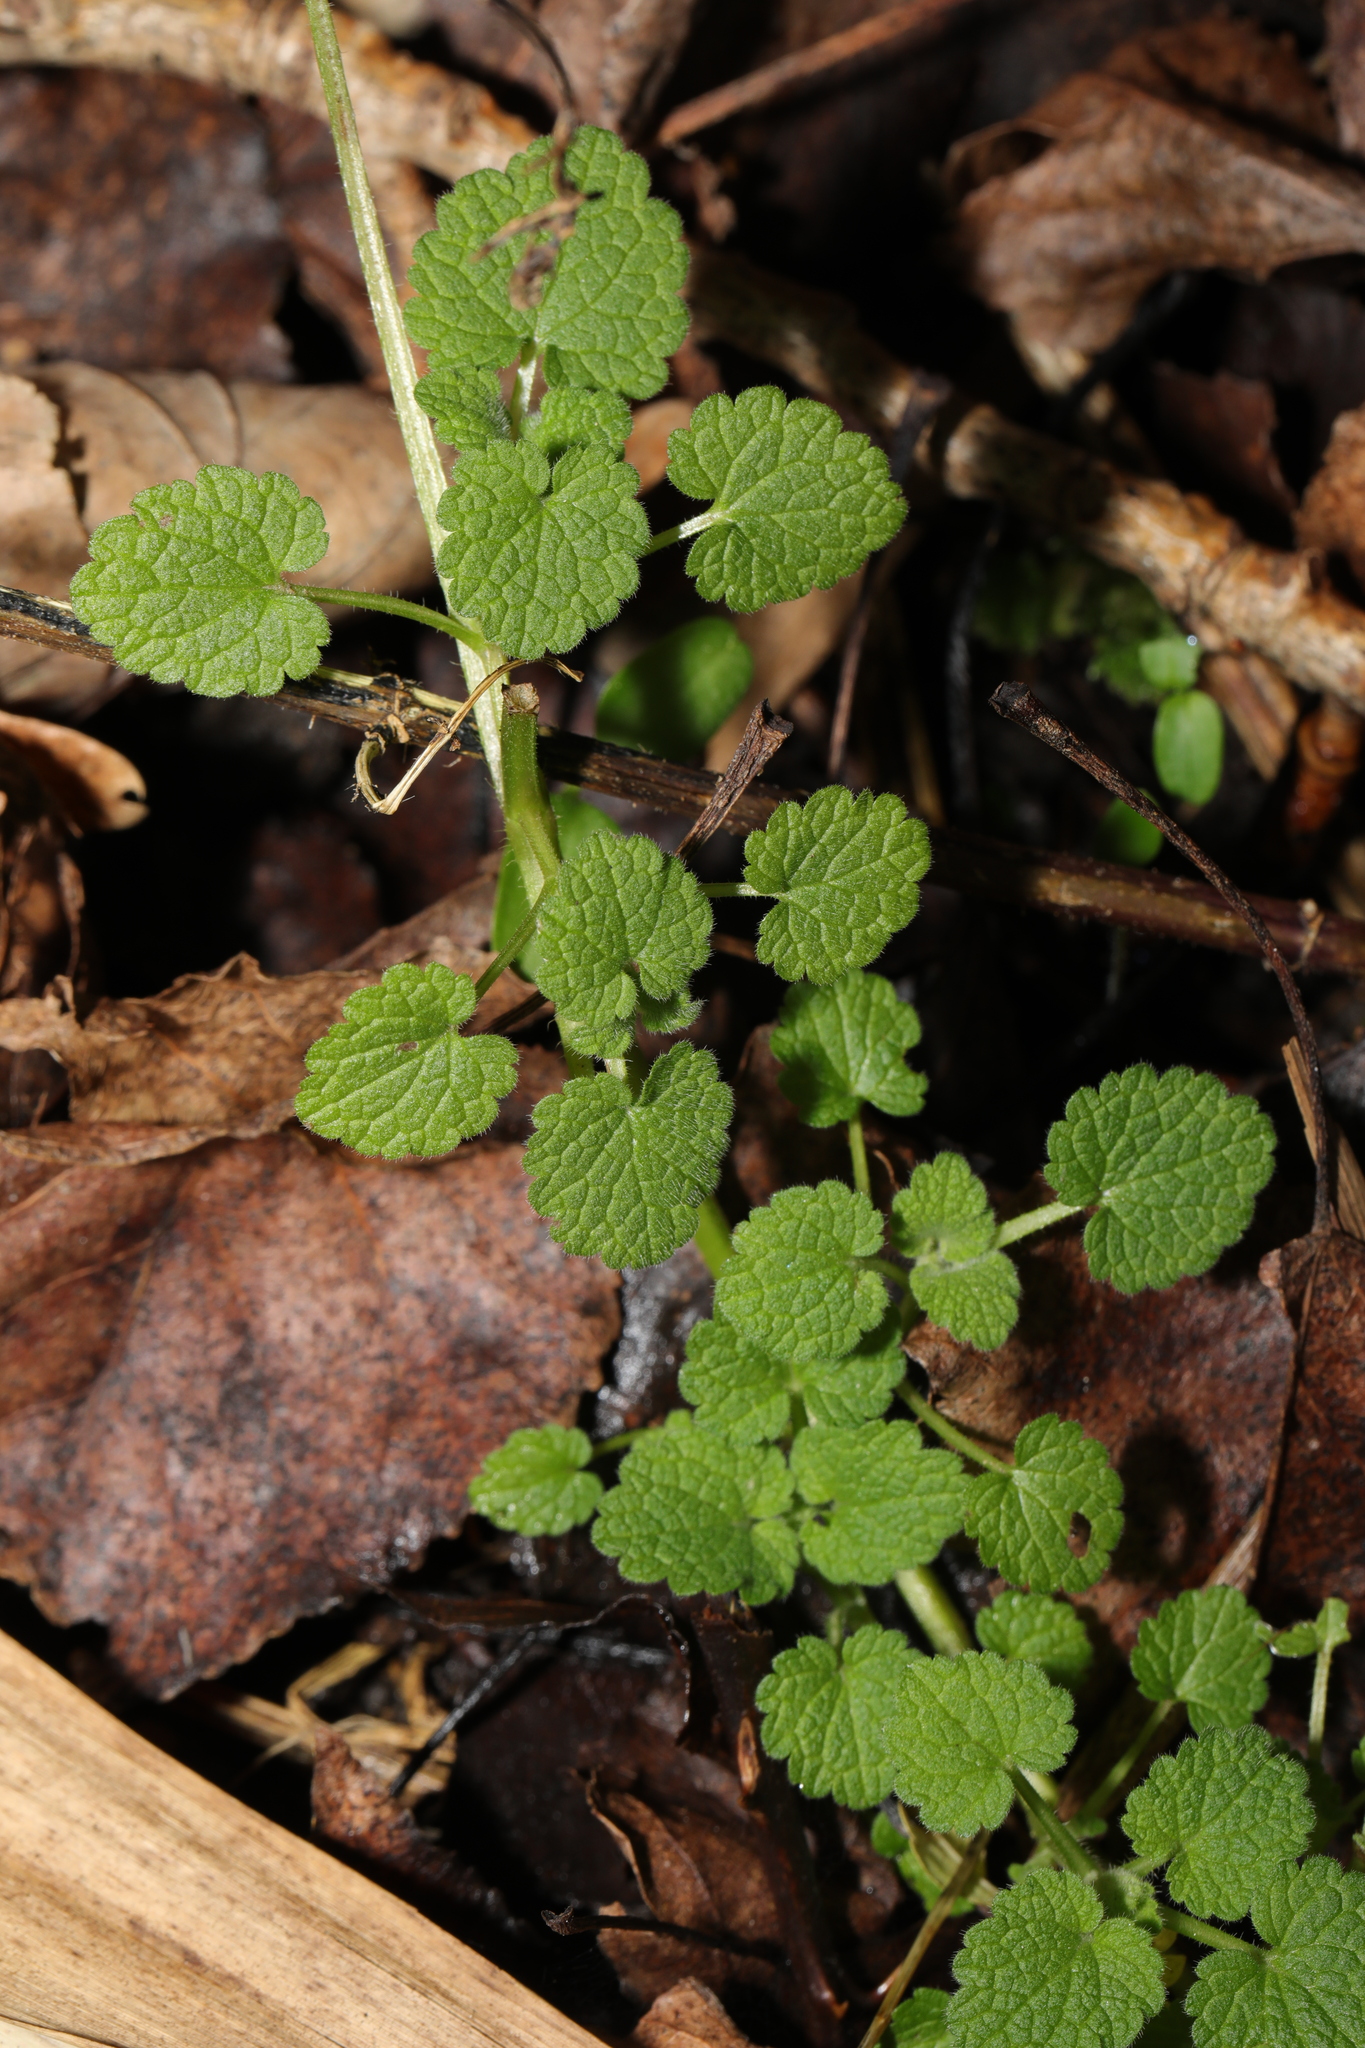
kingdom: Plantae
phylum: Tracheophyta
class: Magnoliopsida
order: Lamiales
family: Lamiaceae
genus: Lamium
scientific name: Lamium purpureum
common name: Red dead-nettle
